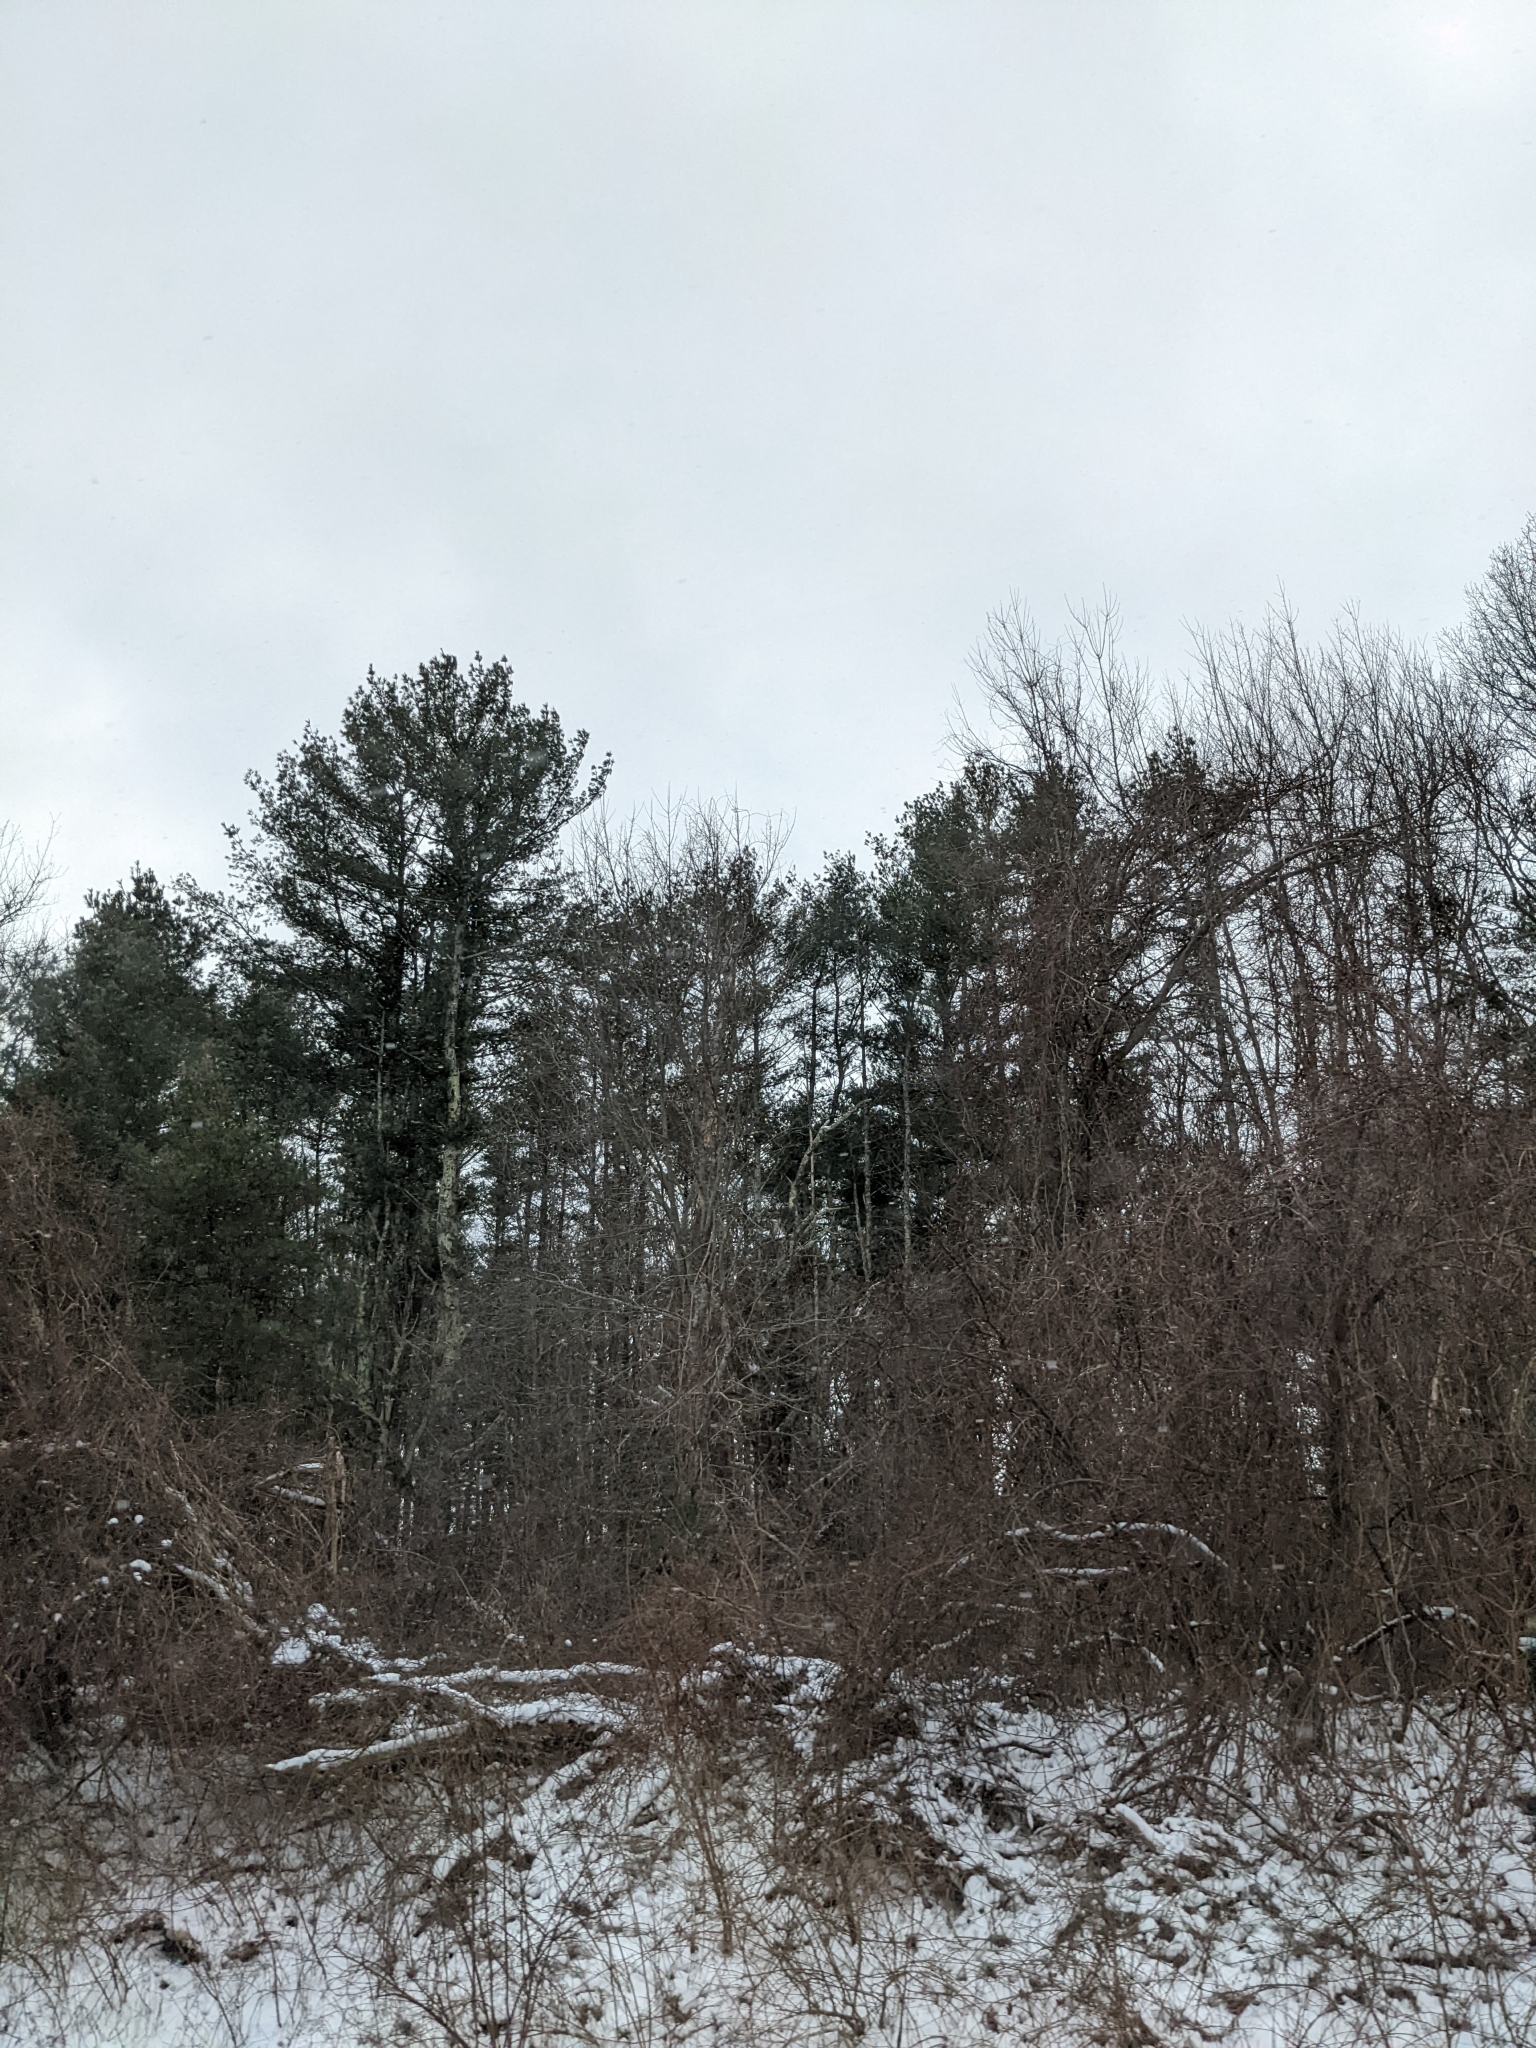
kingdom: Plantae
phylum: Tracheophyta
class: Pinopsida
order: Pinales
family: Pinaceae
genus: Pinus
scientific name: Pinus strobus
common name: Weymouth pine
